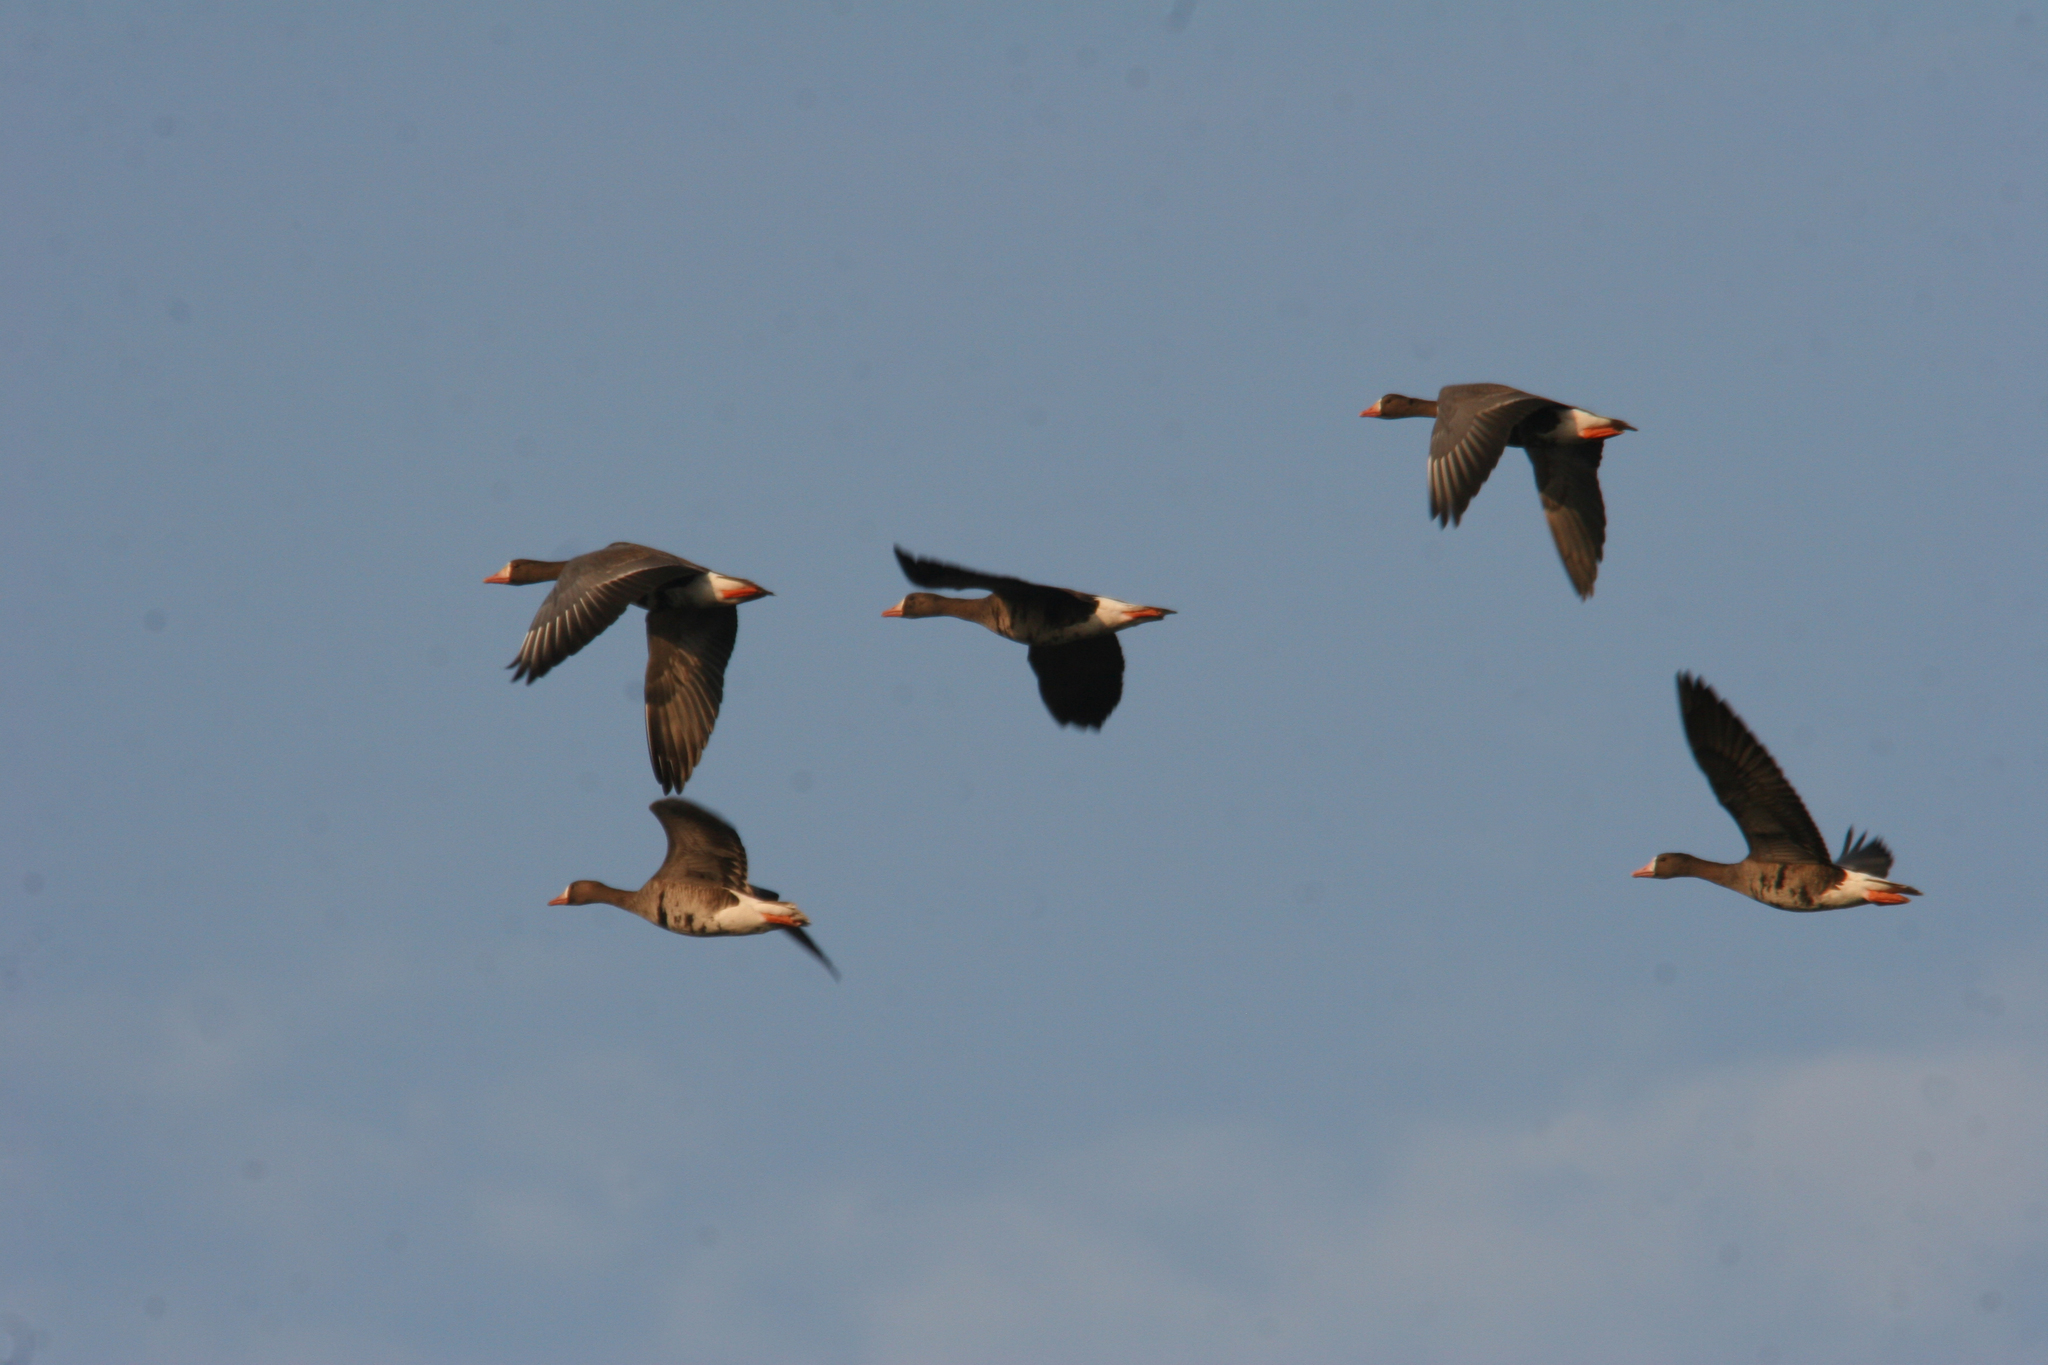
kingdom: Animalia
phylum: Chordata
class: Aves
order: Anseriformes
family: Anatidae
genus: Anser
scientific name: Anser albifrons
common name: Greater white-fronted goose
